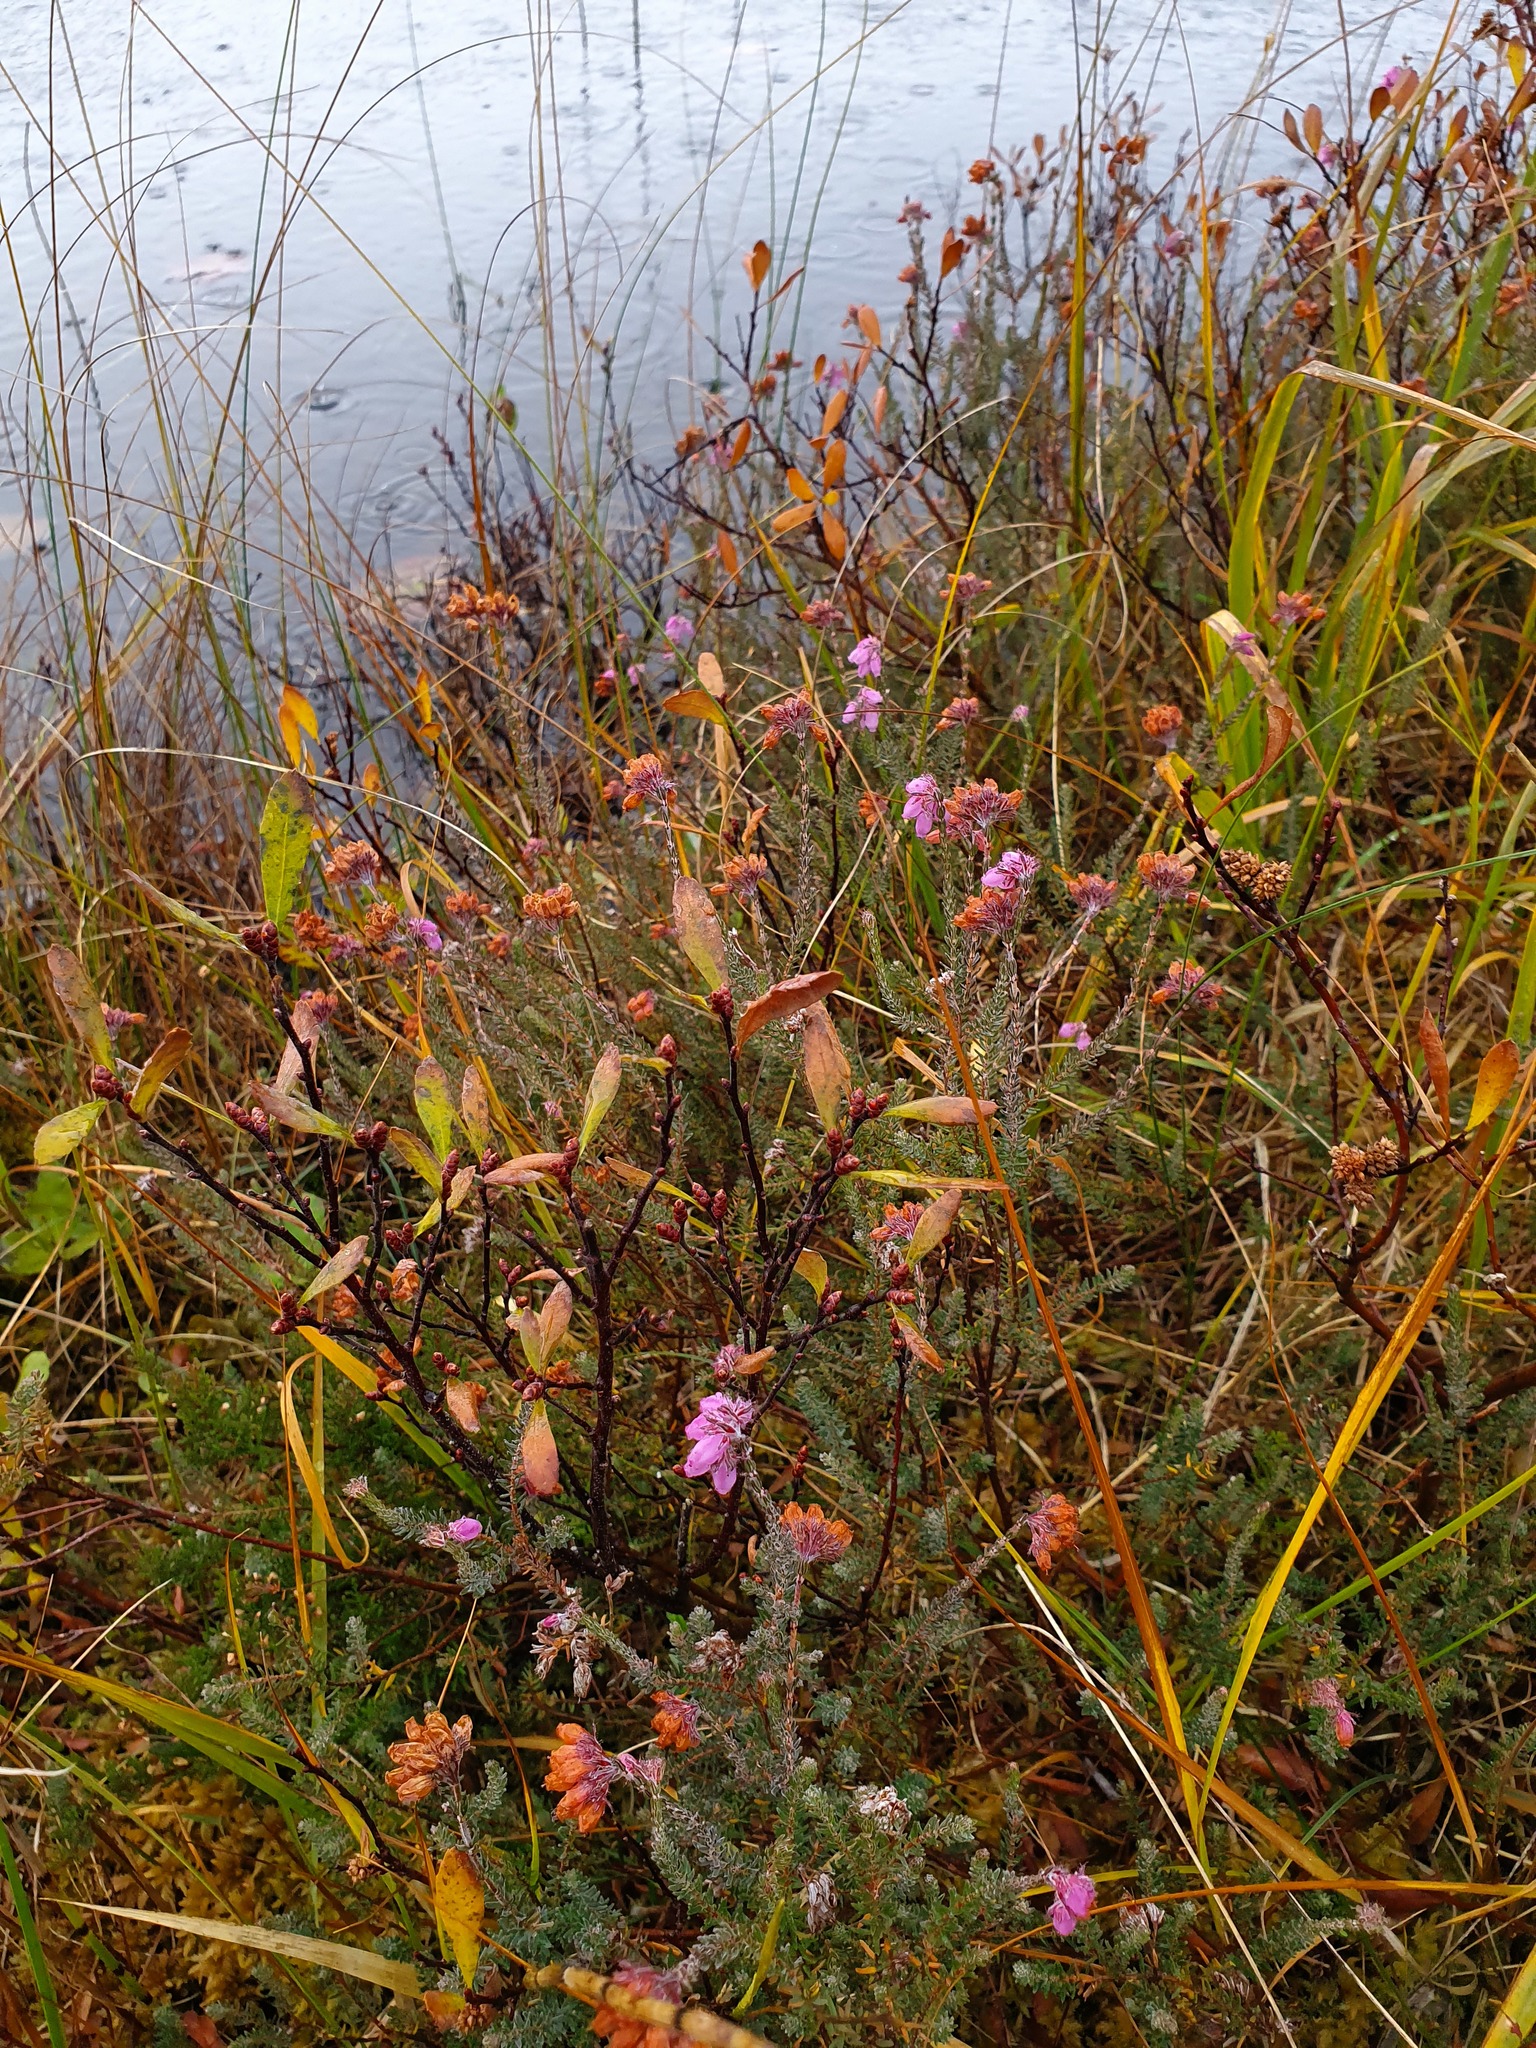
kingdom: Plantae
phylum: Tracheophyta
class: Magnoliopsida
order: Ericales
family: Ericaceae
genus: Erica
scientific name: Erica tetralix
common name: Cross-leaved heath
